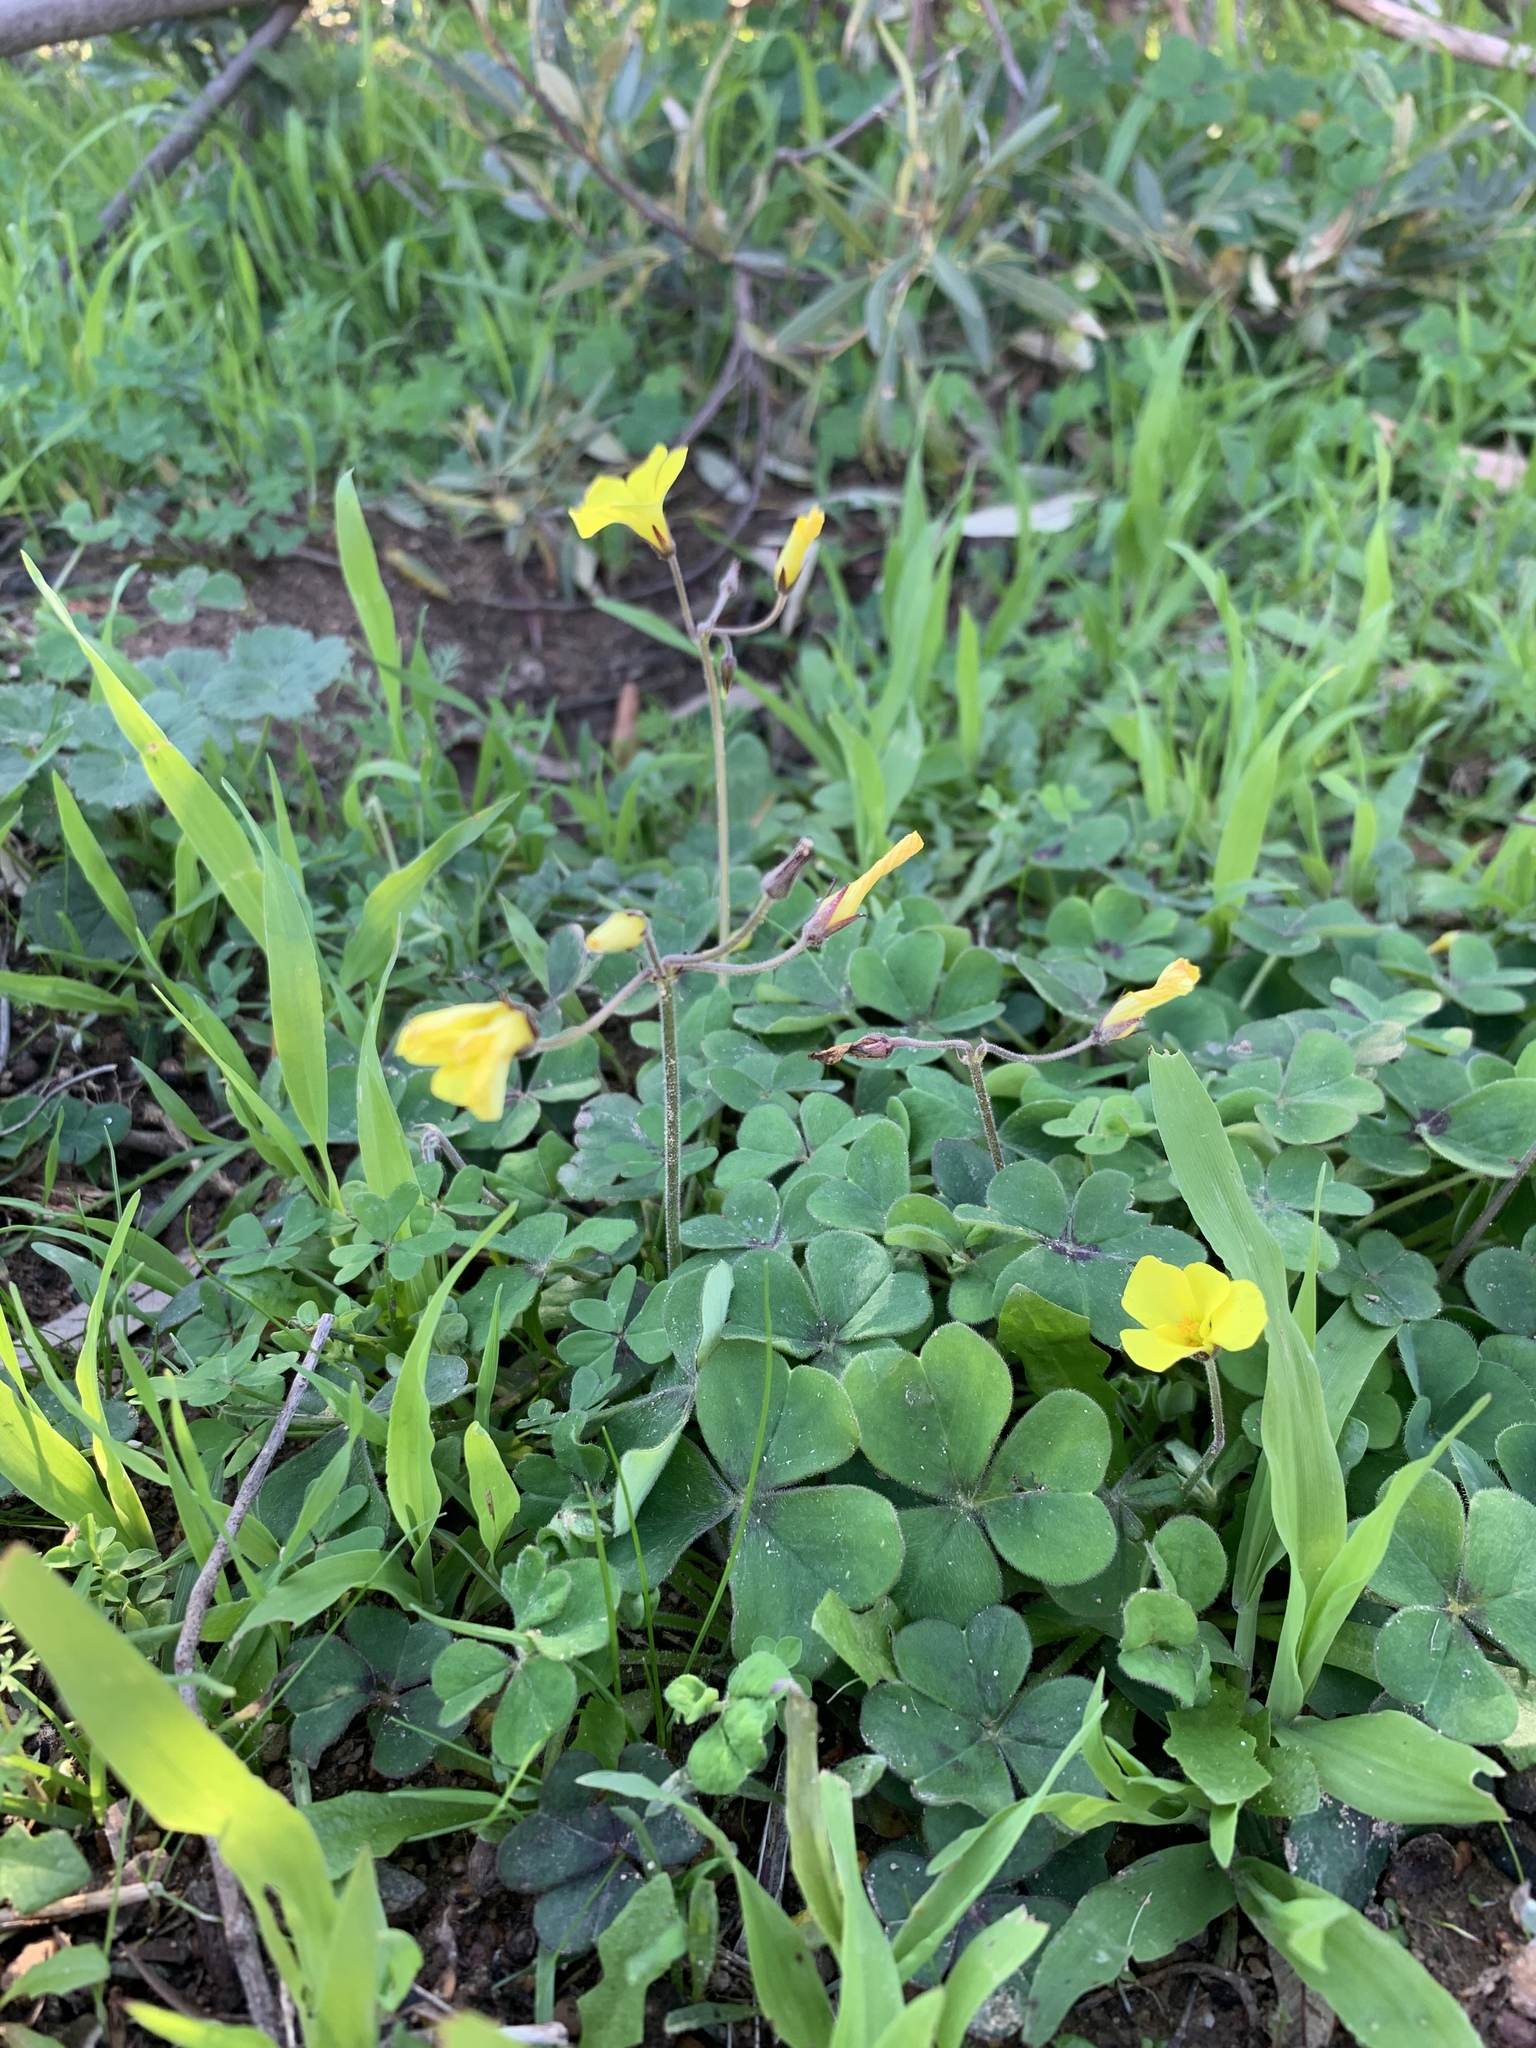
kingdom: Plantae
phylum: Tracheophyta
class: Magnoliopsida
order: Oxalidales
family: Oxalidaceae
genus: Oxalis
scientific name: Oxalis pes-caprae
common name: Bermuda-buttercup
